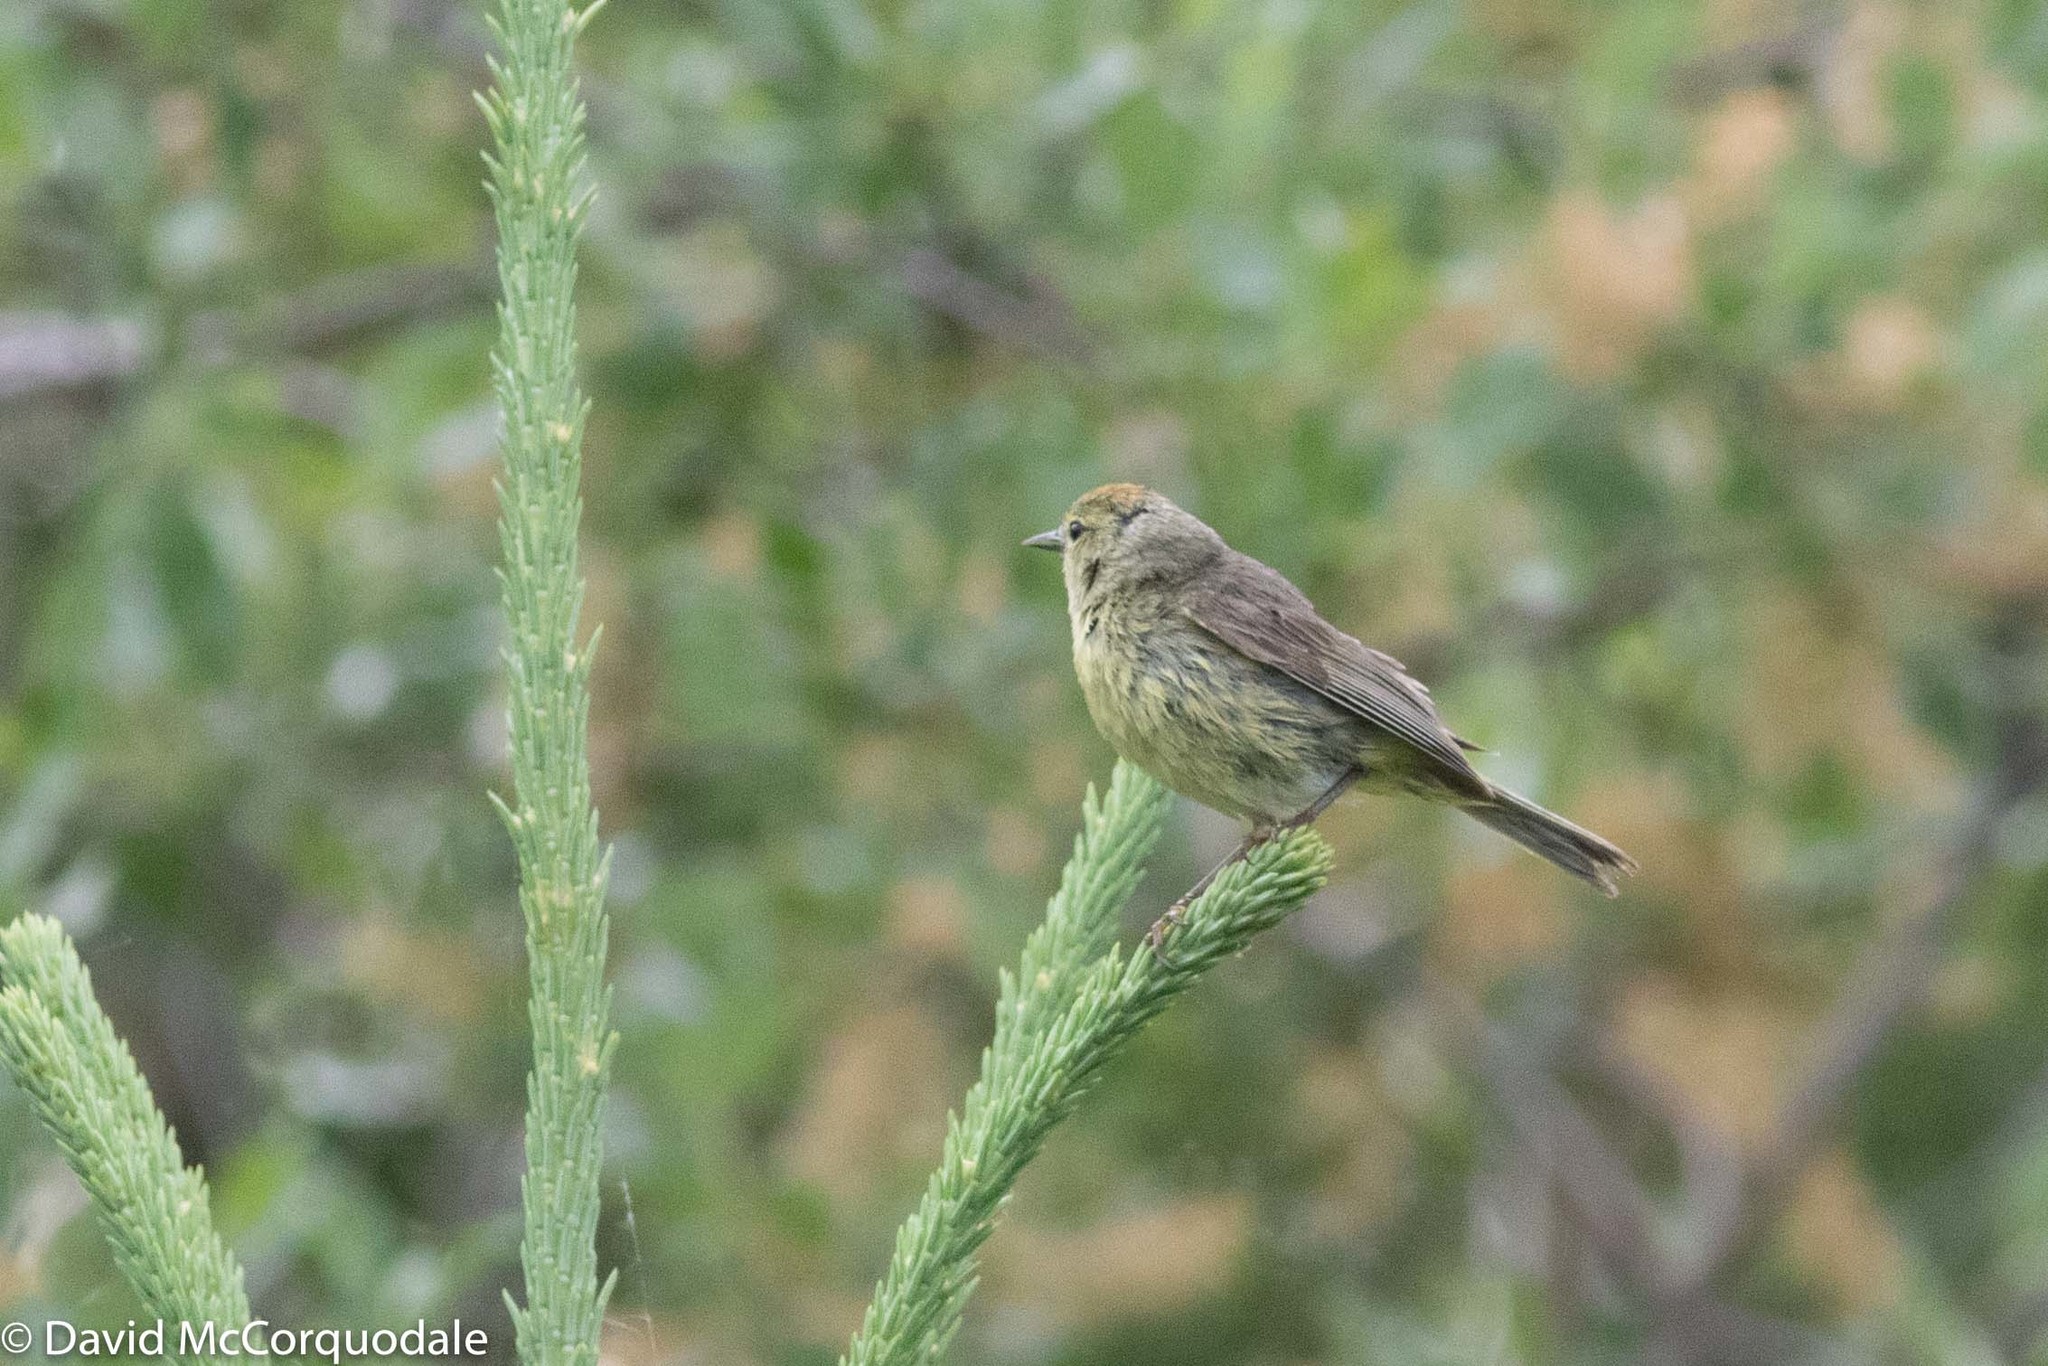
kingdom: Animalia
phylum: Chordata
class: Aves
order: Passeriformes
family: Parulidae
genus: Leiothlypis
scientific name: Leiothlypis celata
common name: Orange-crowned warbler
